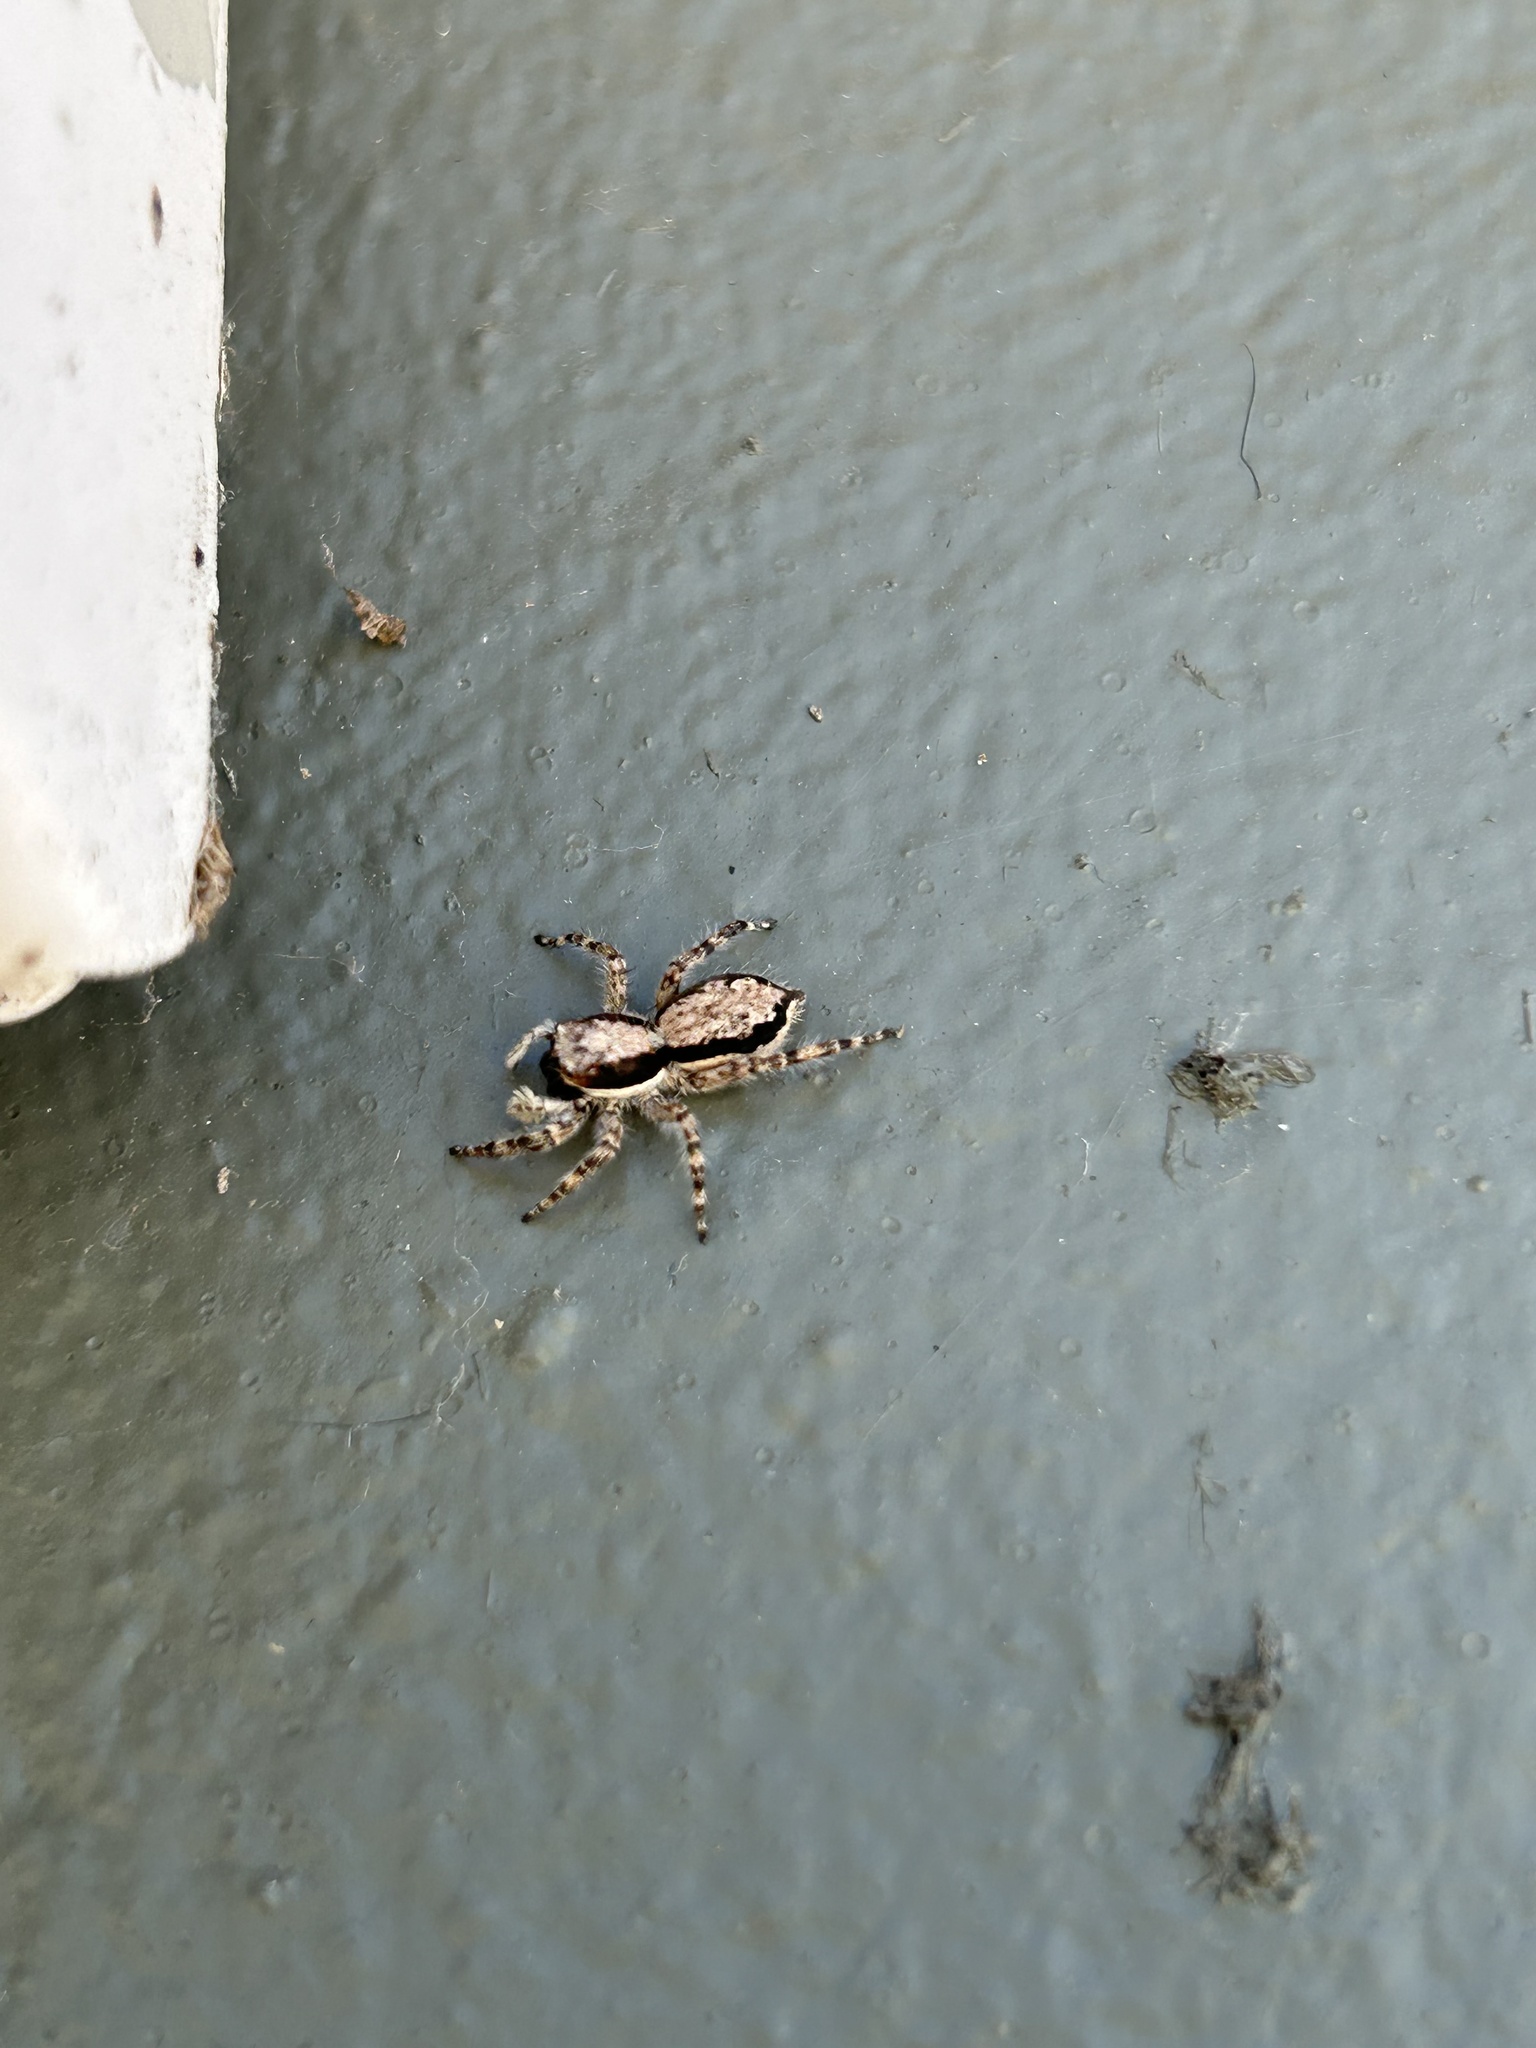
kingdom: Animalia
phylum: Arthropoda
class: Arachnida
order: Araneae
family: Salticidae
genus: Menemerus
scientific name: Menemerus bivittatus
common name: Gray wall jumper
